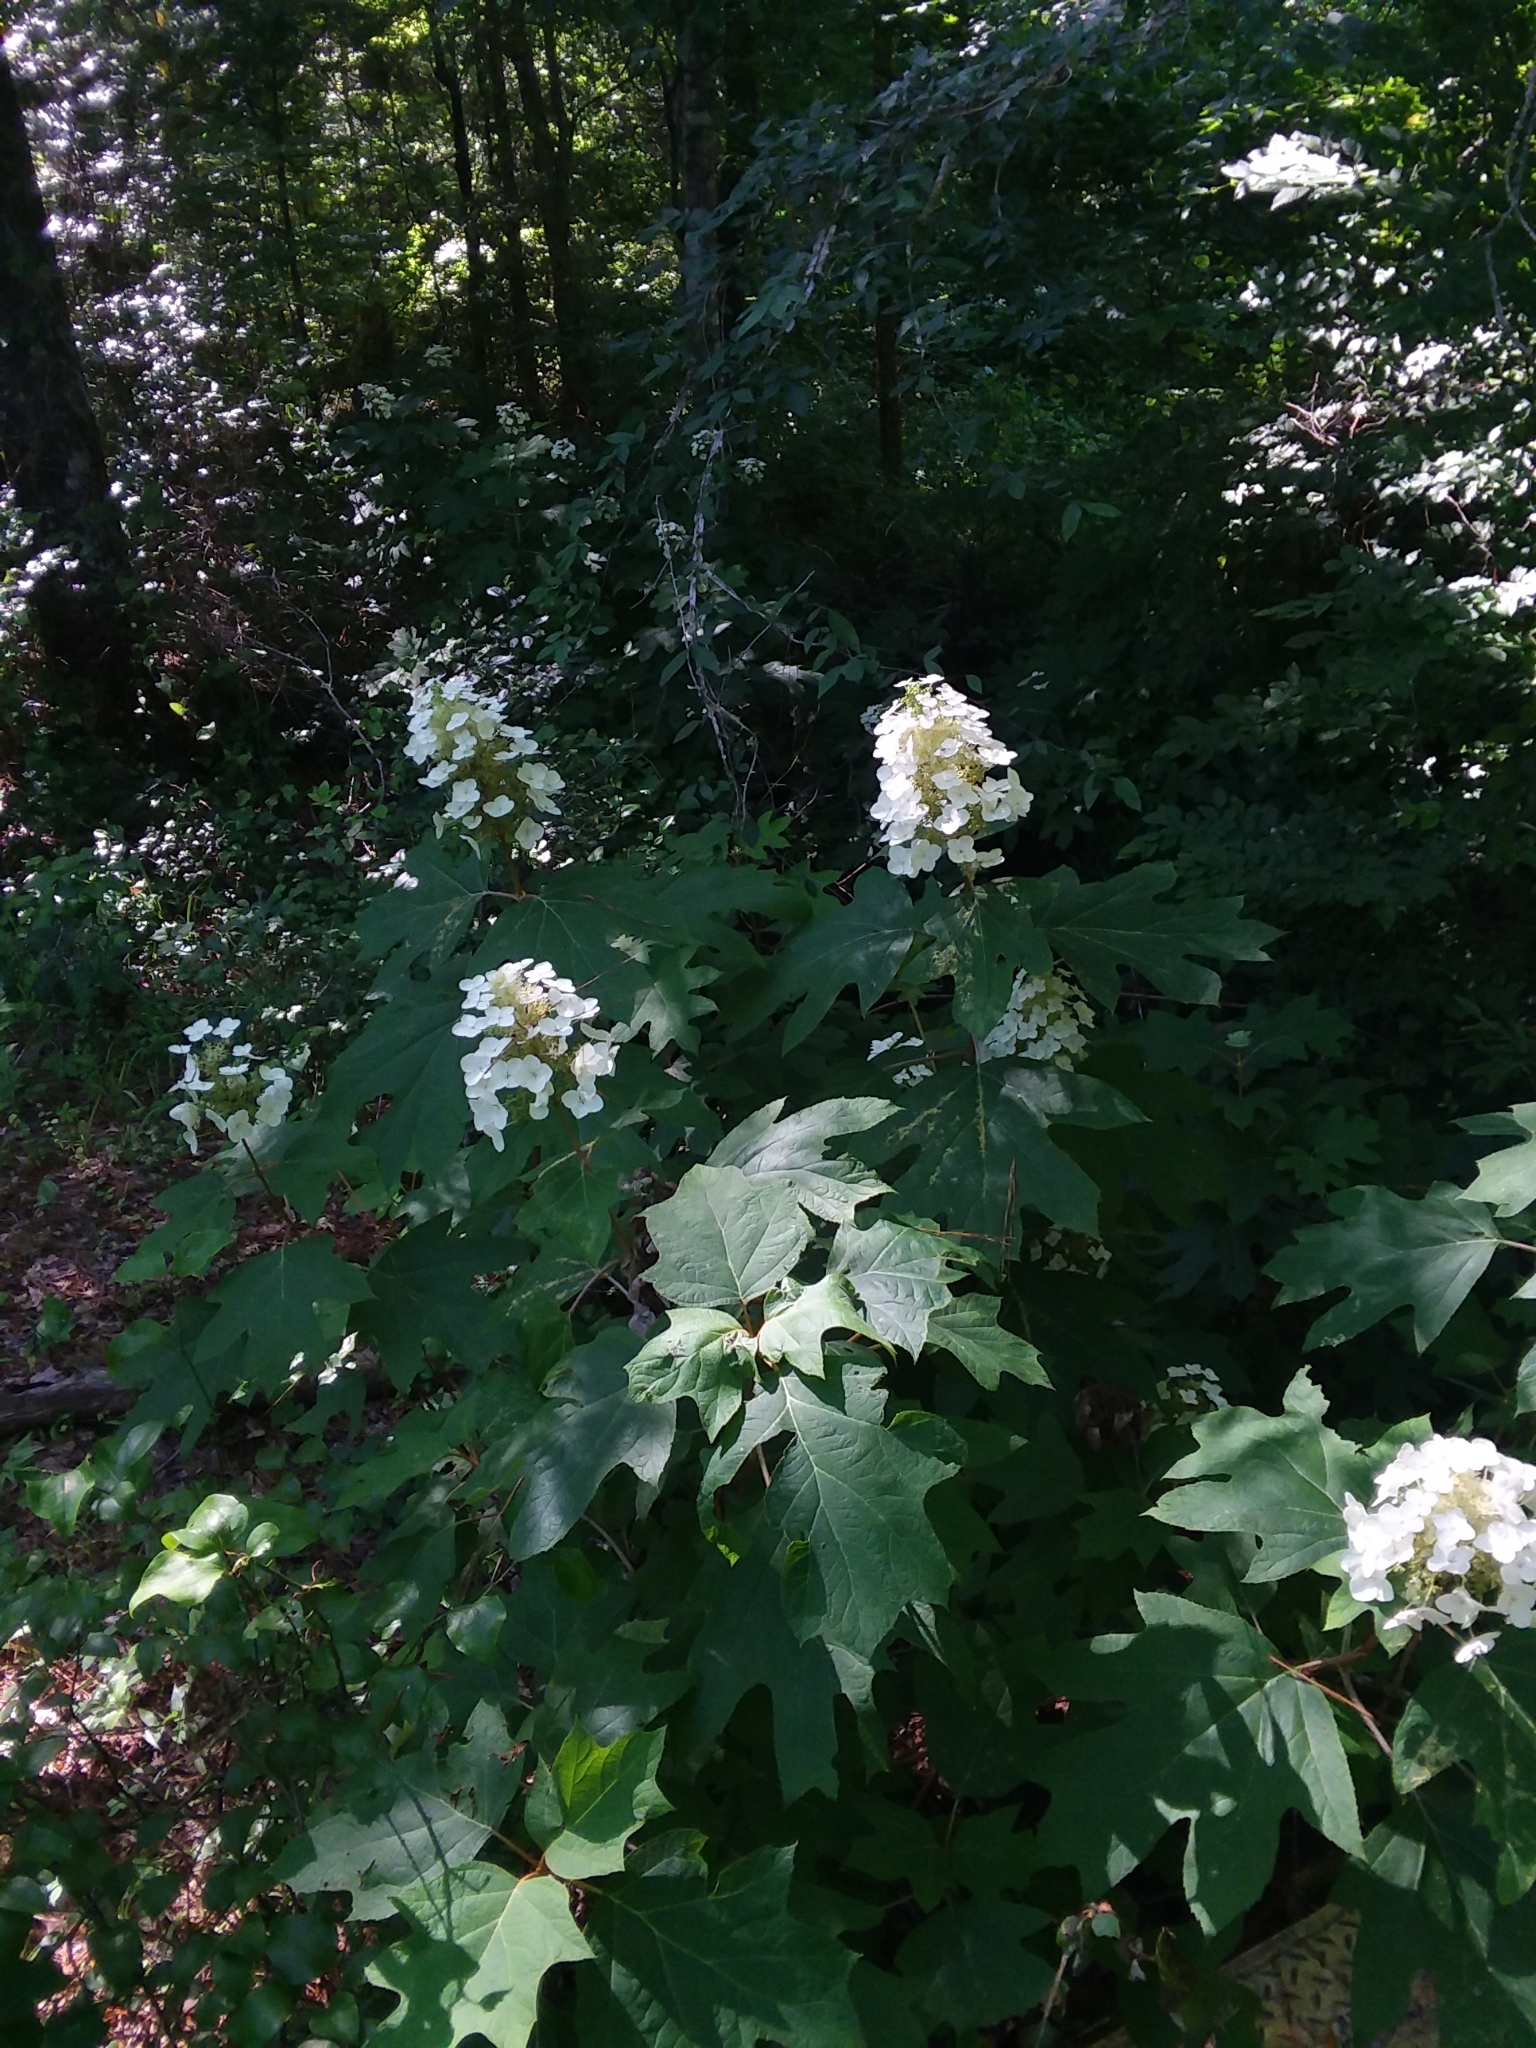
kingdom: Plantae
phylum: Tracheophyta
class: Magnoliopsida
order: Cornales
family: Hydrangeaceae
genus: Hydrangea
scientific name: Hydrangea quercifolia
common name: Oak-leaf hydrangea
